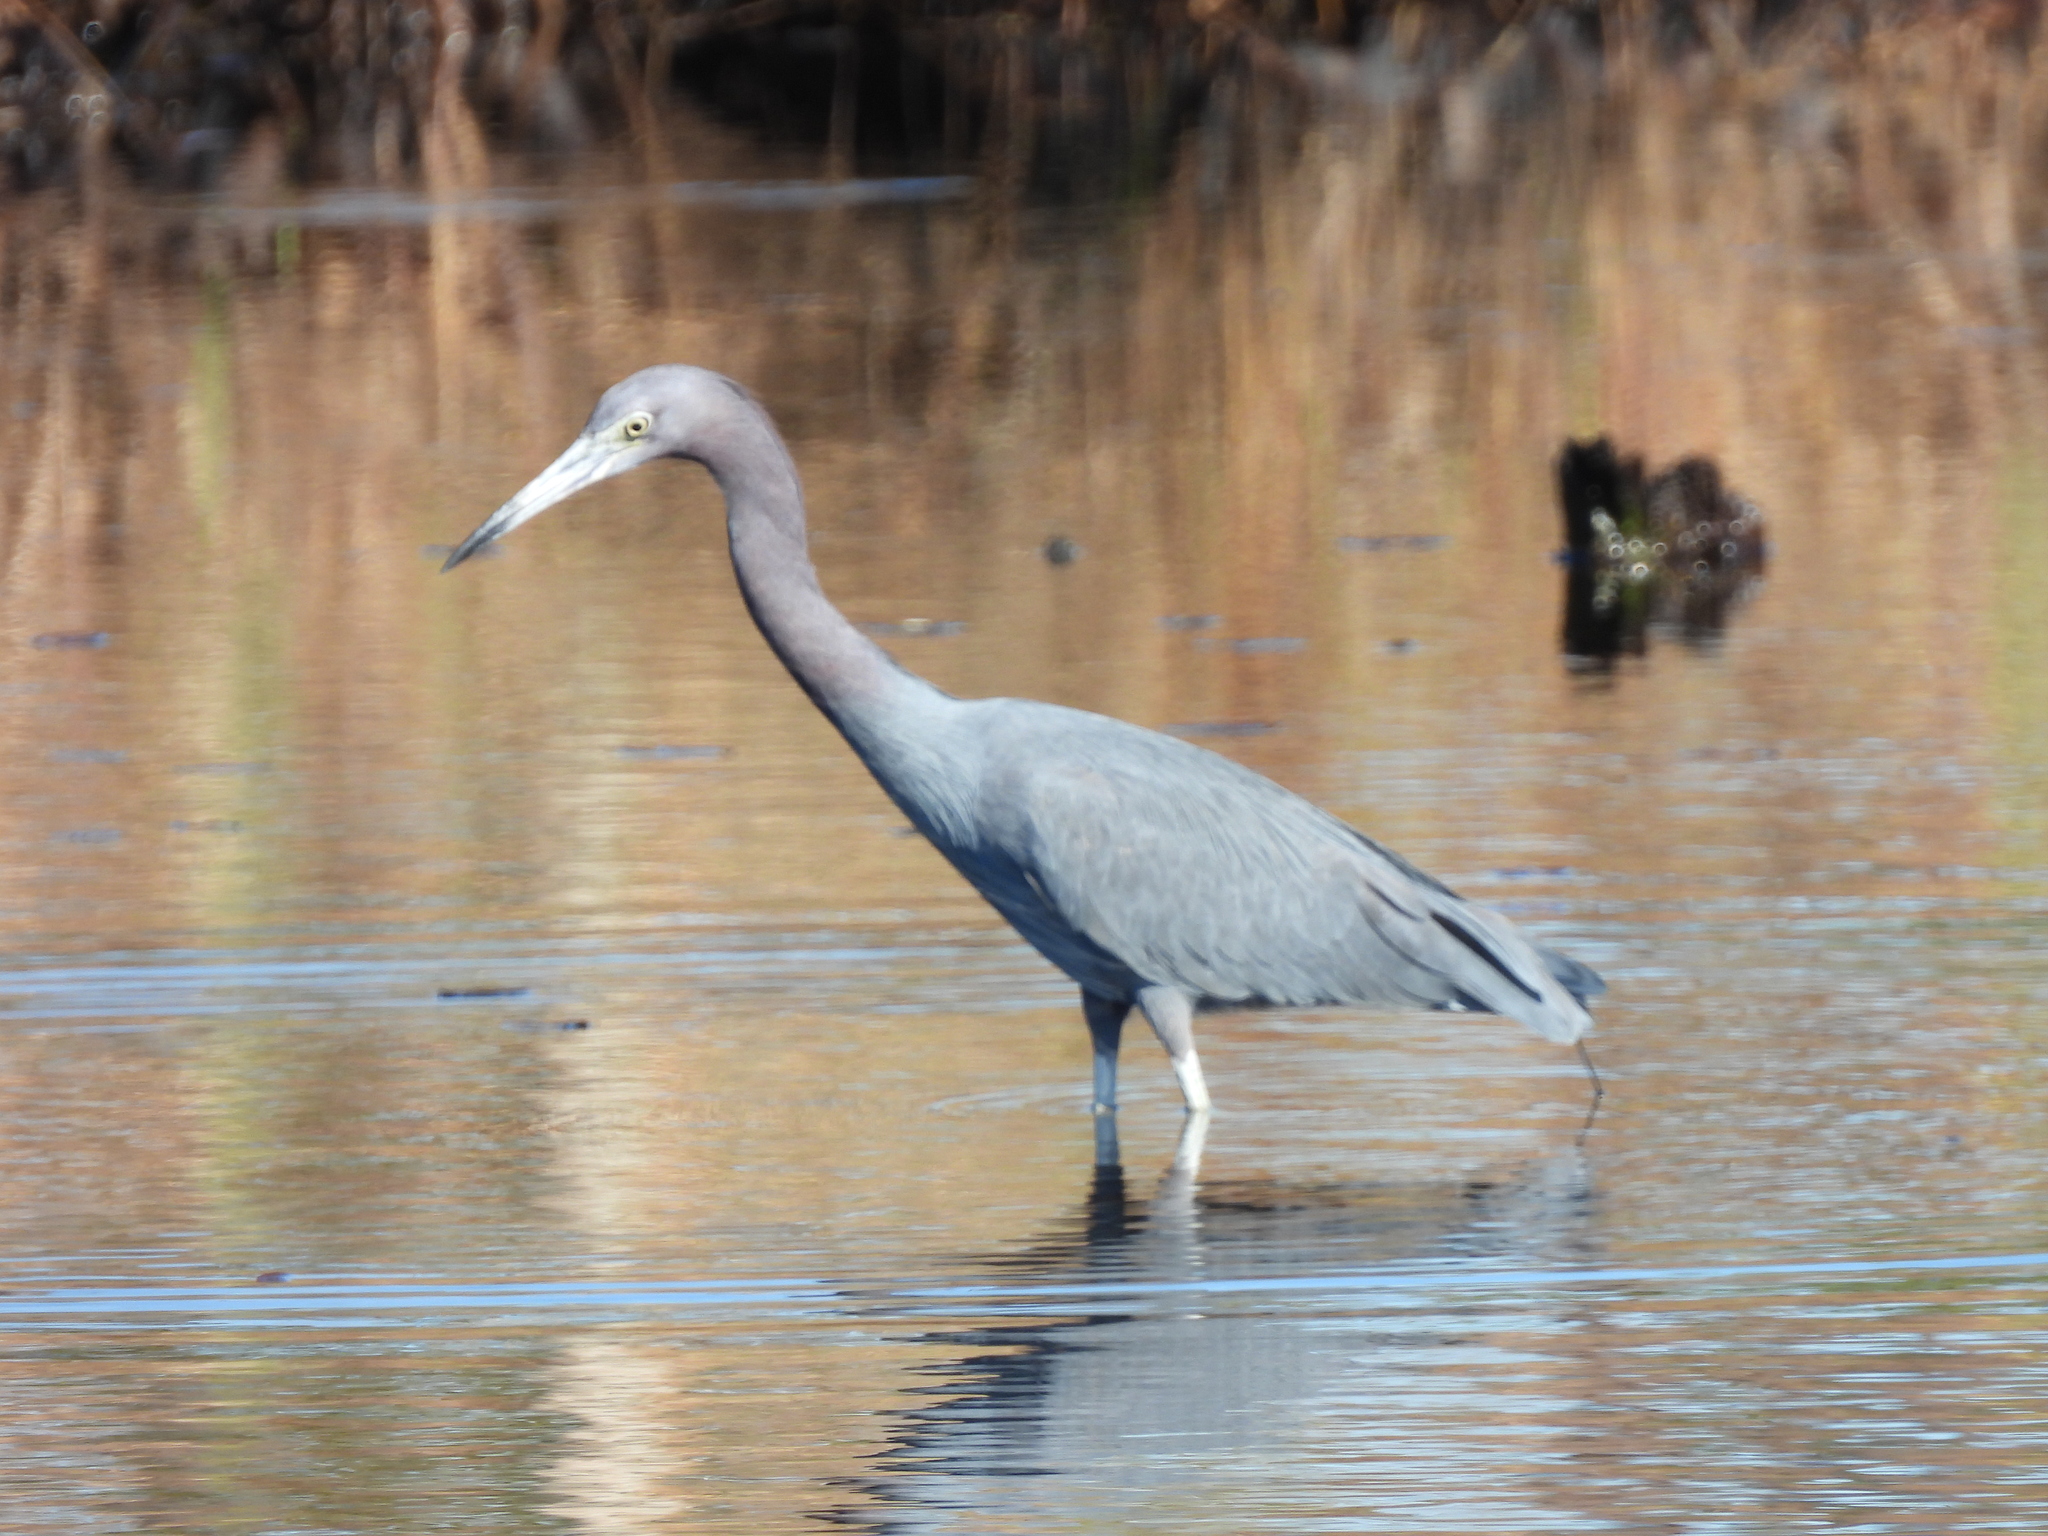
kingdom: Animalia
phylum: Chordata
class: Aves
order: Pelecaniformes
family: Ardeidae
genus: Egretta
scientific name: Egretta caerulea
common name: Little blue heron
